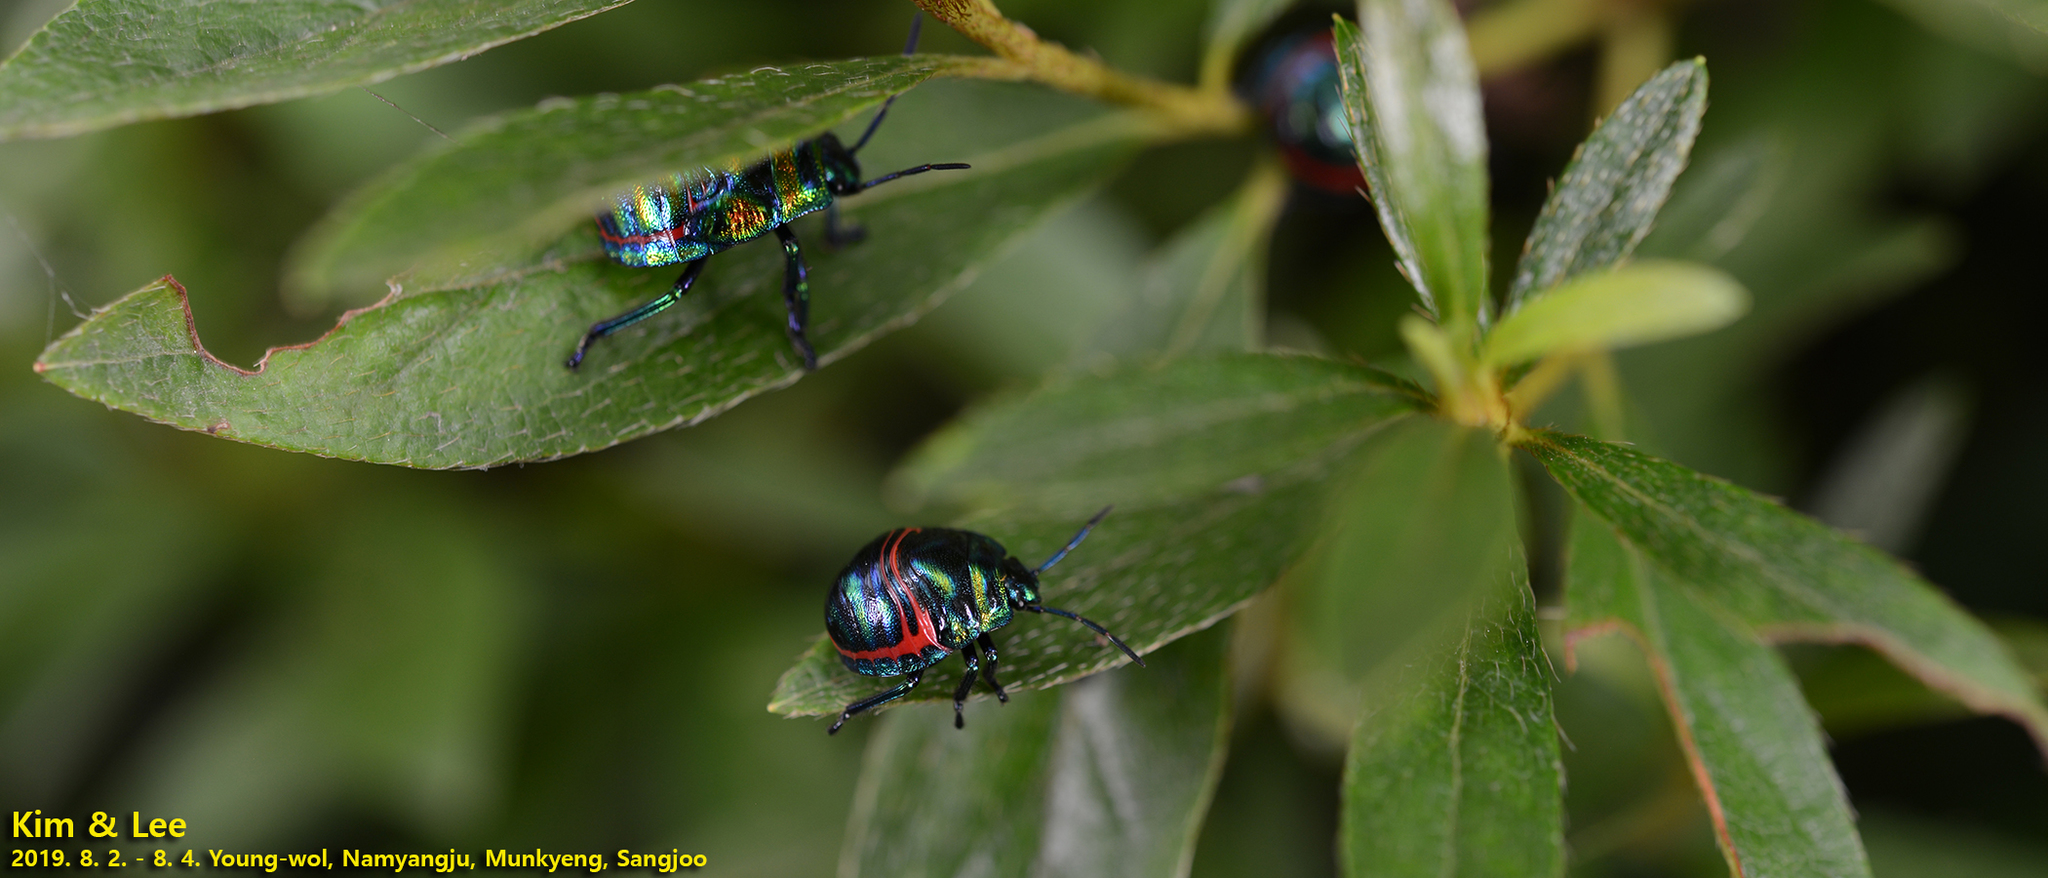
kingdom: Animalia
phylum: Arthropoda
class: Insecta
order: Hemiptera
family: Scutelleridae
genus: Poecilocoris
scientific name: Poecilocoris
